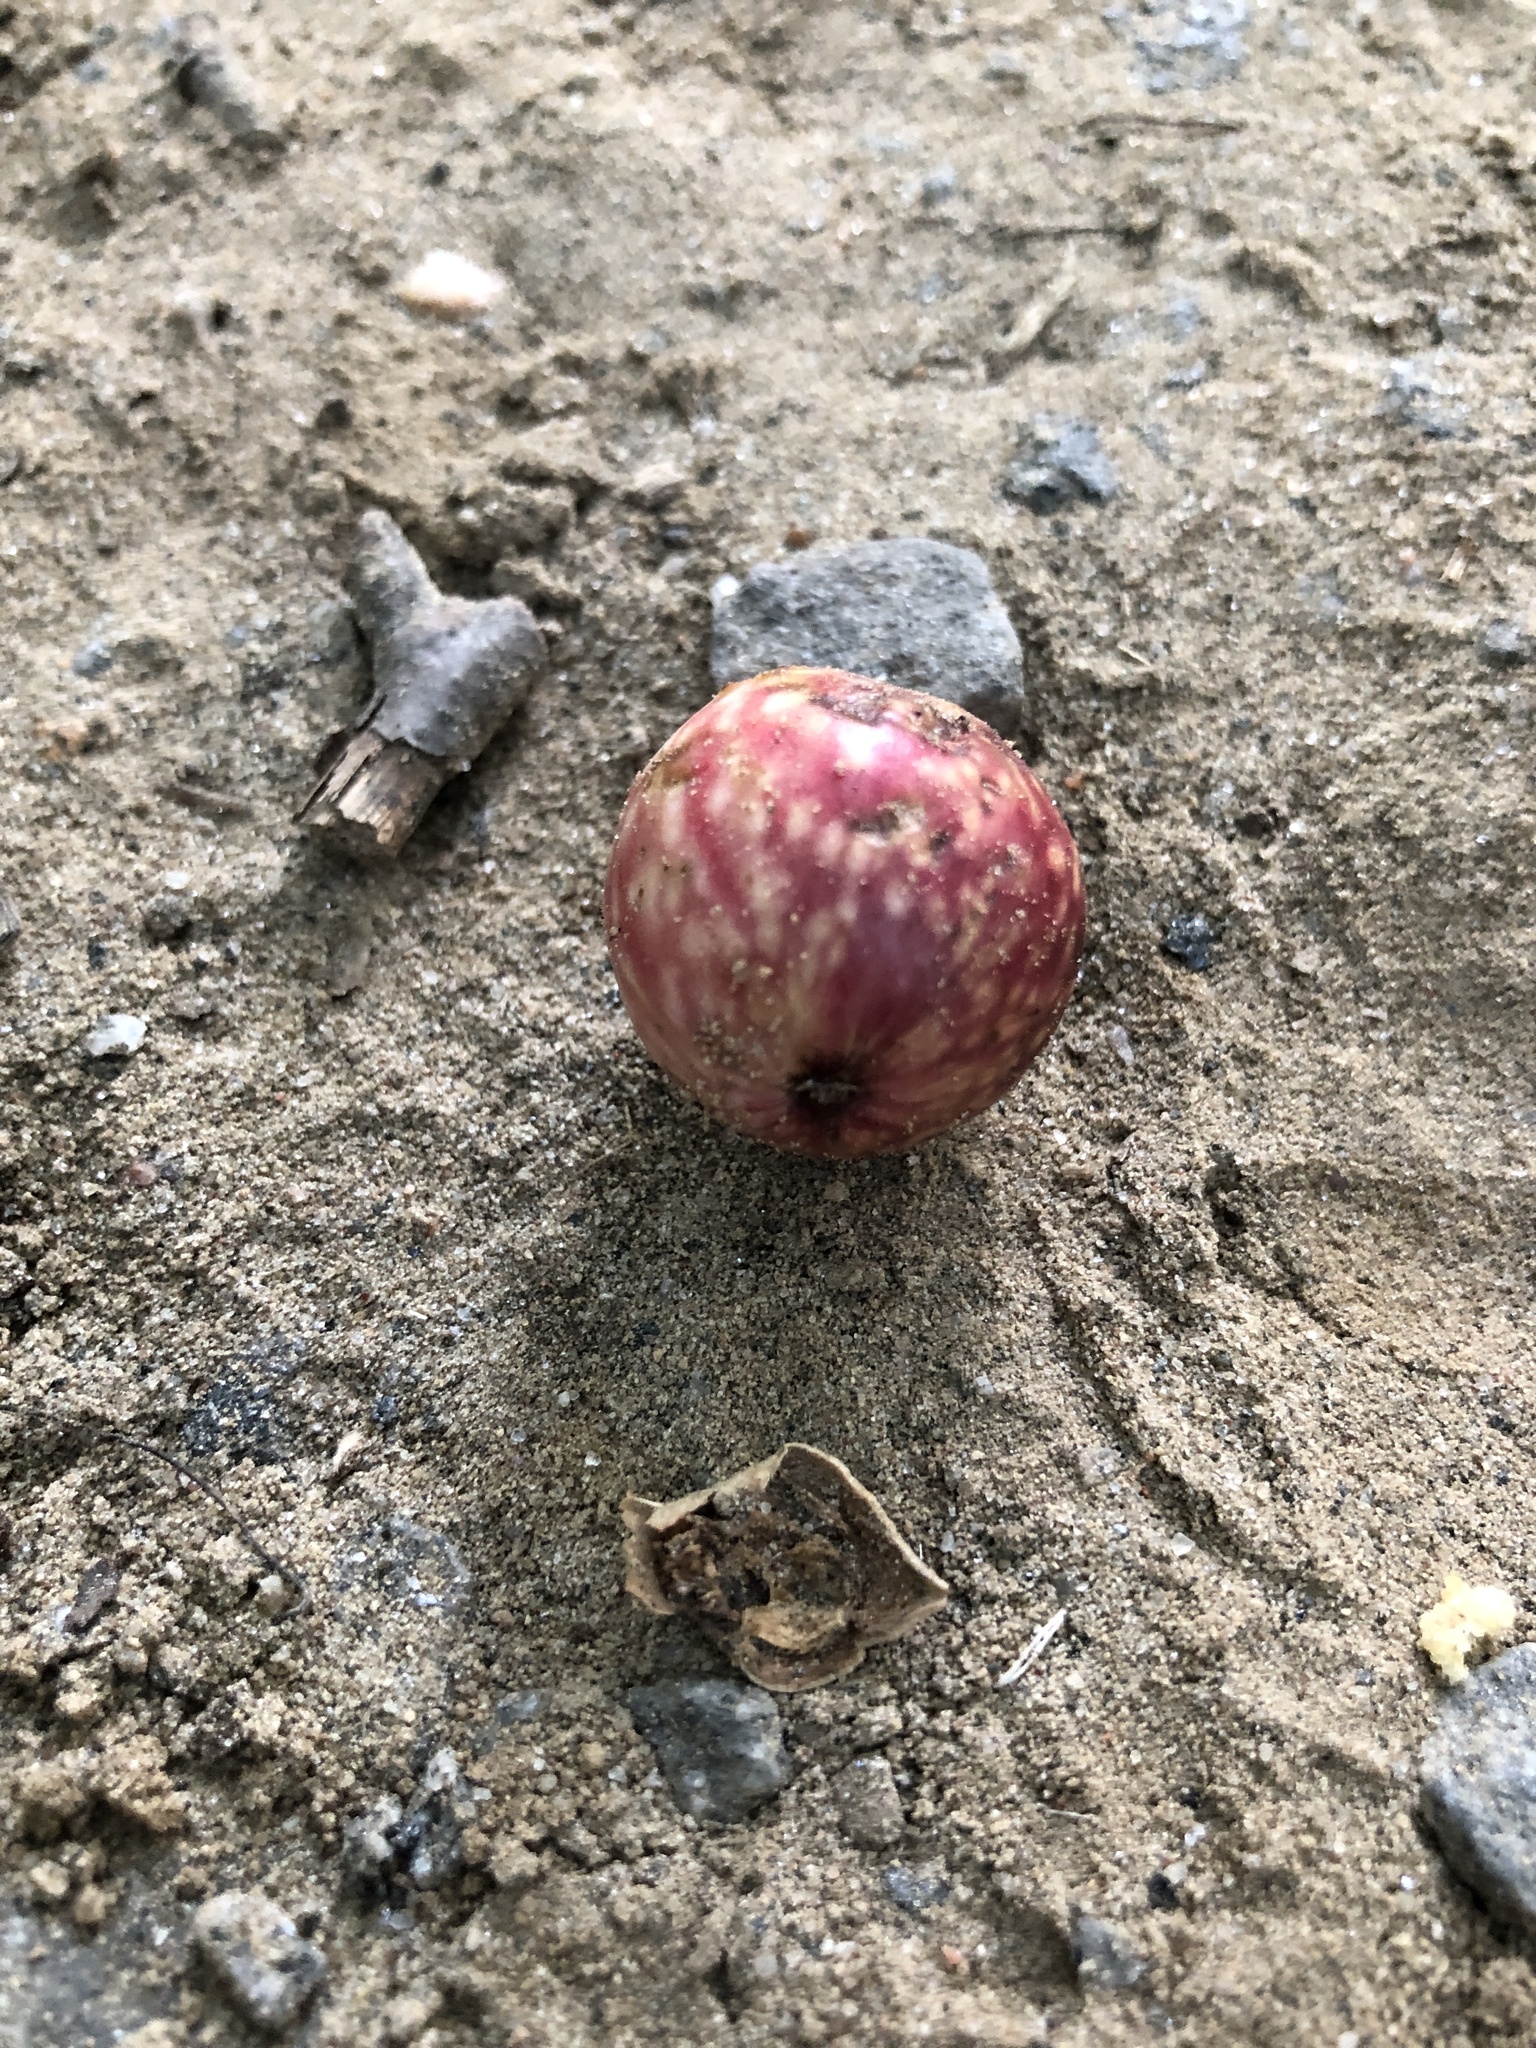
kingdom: Animalia
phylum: Arthropoda
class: Insecta
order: Hymenoptera
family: Cynipidae
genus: Amphibolips
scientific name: Amphibolips
